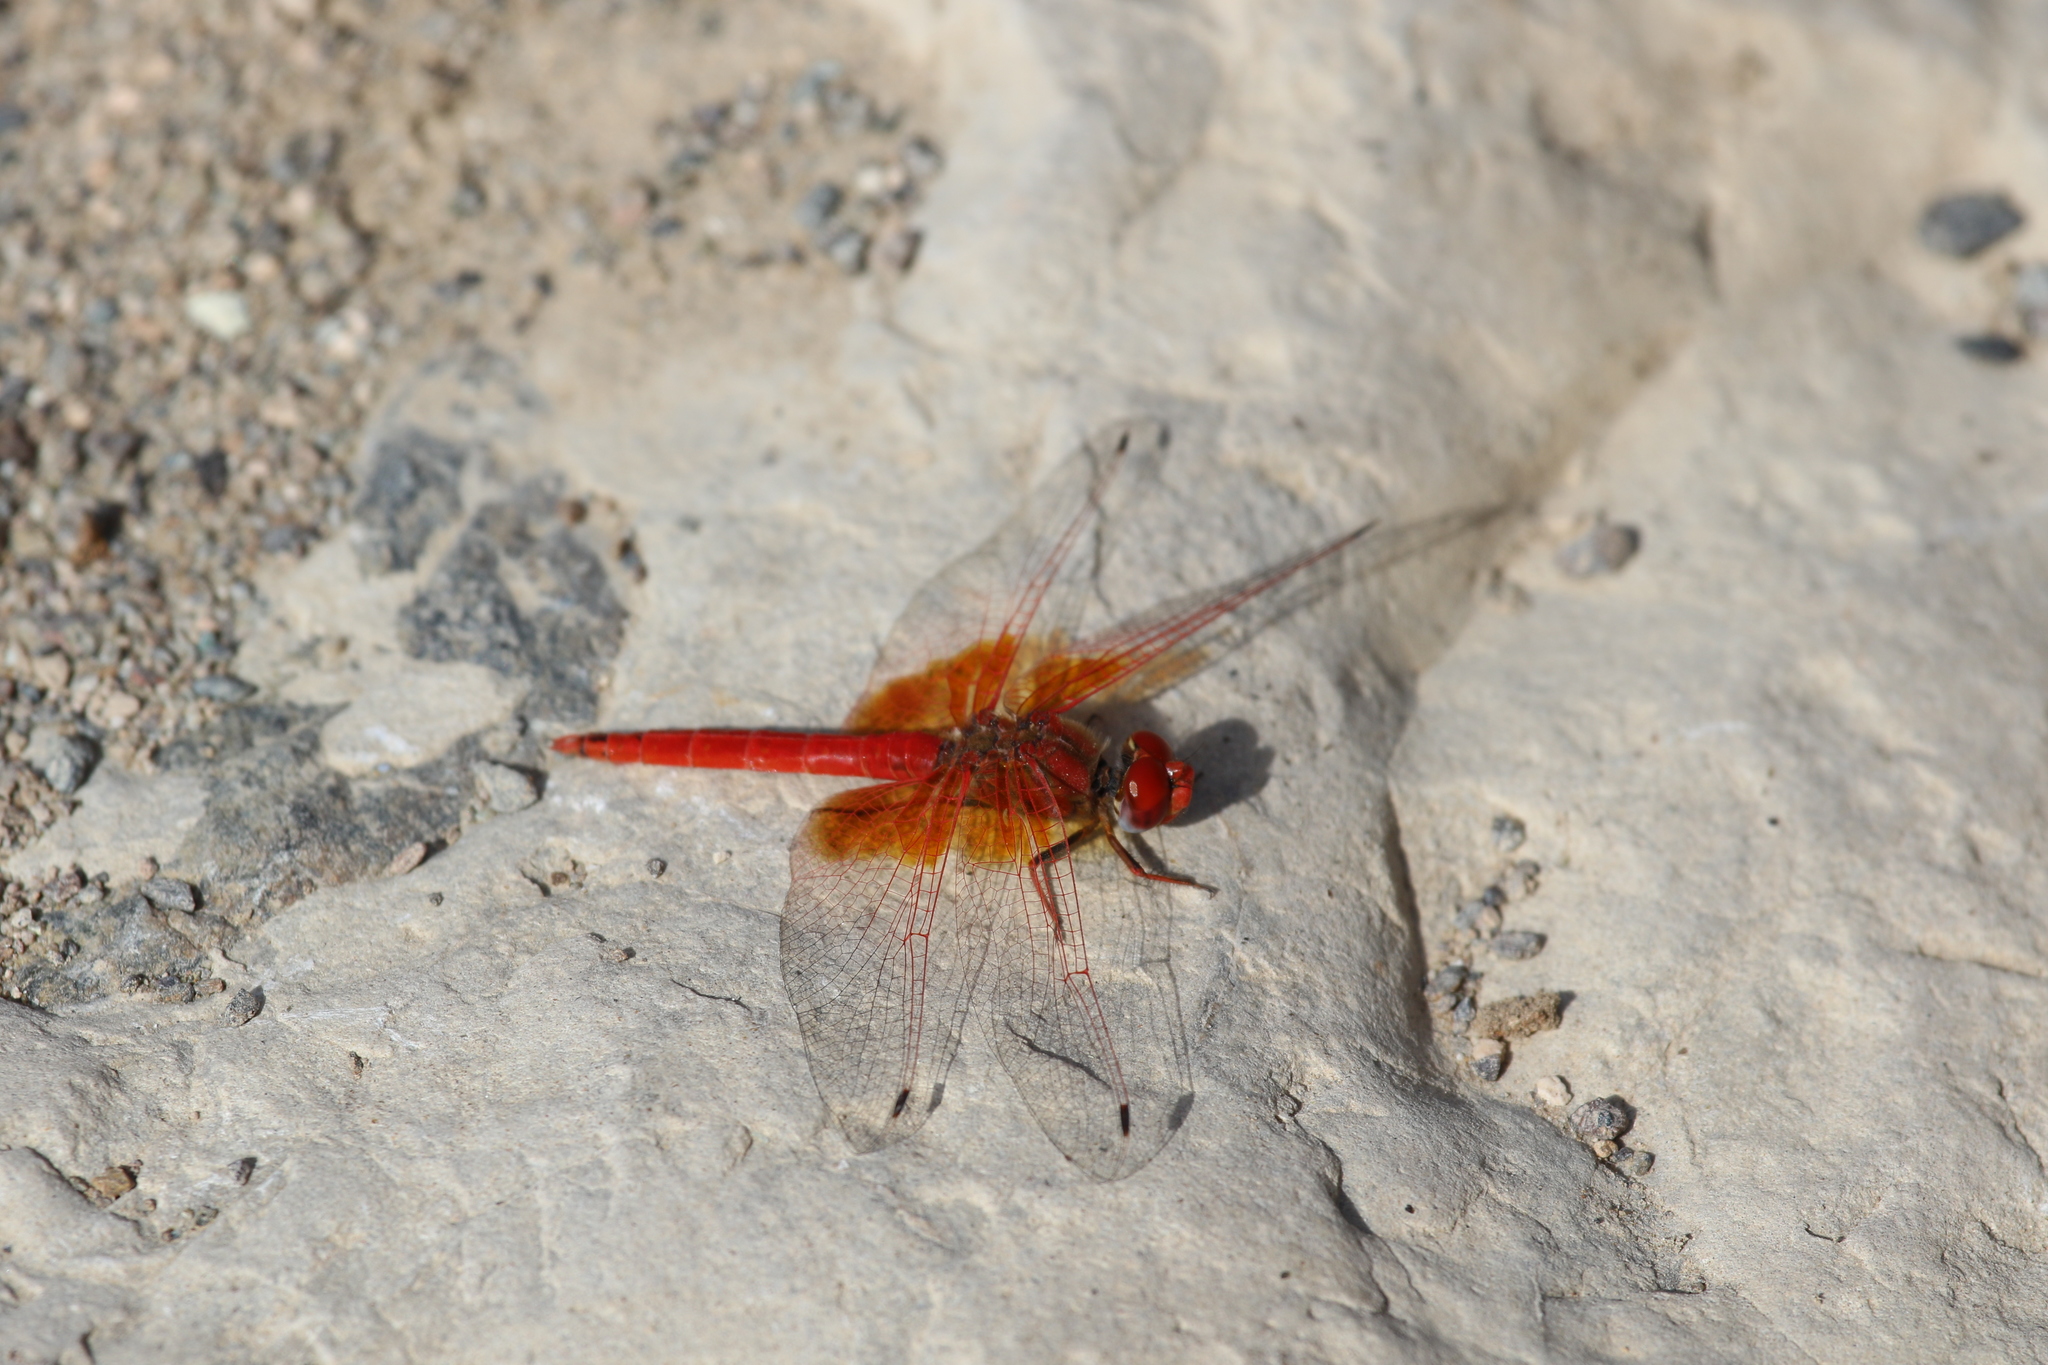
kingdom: Animalia
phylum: Arthropoda
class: Insecta
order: Odonata
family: Libellulidae
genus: Trithemis
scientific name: Trithemis kirbyi
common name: Kirby's dropwing
